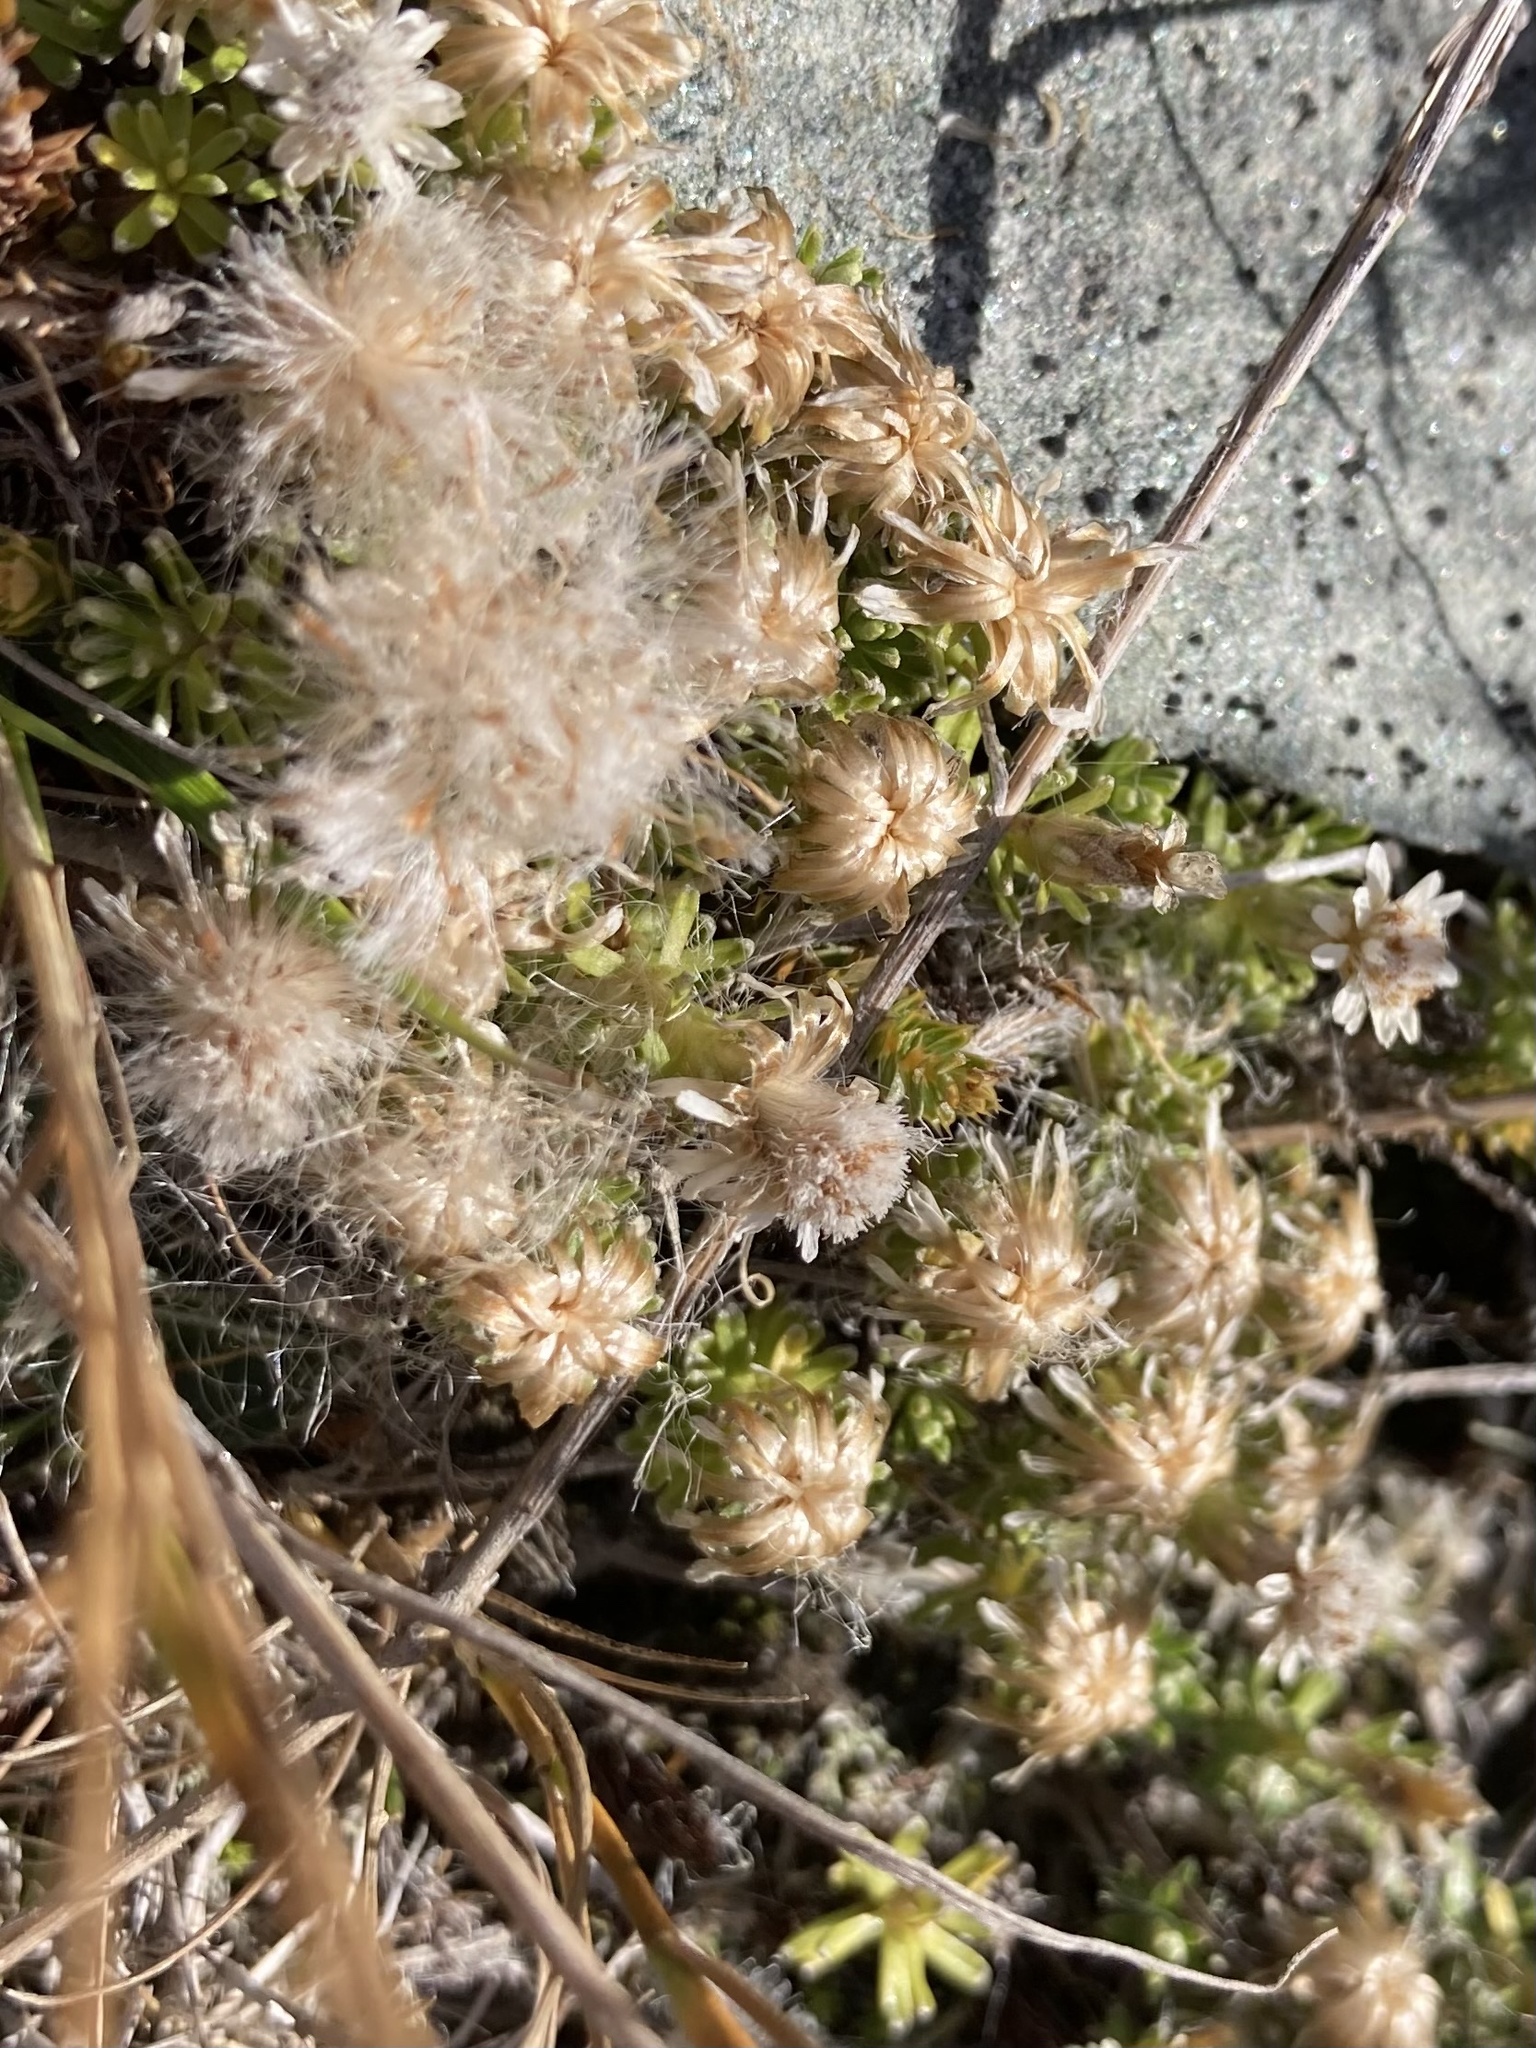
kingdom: Plantae
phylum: Tracheophyta
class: Magnoliopsida
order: Asterales
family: Asteraceae
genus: Raoulia
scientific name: Raoulia subsericea
